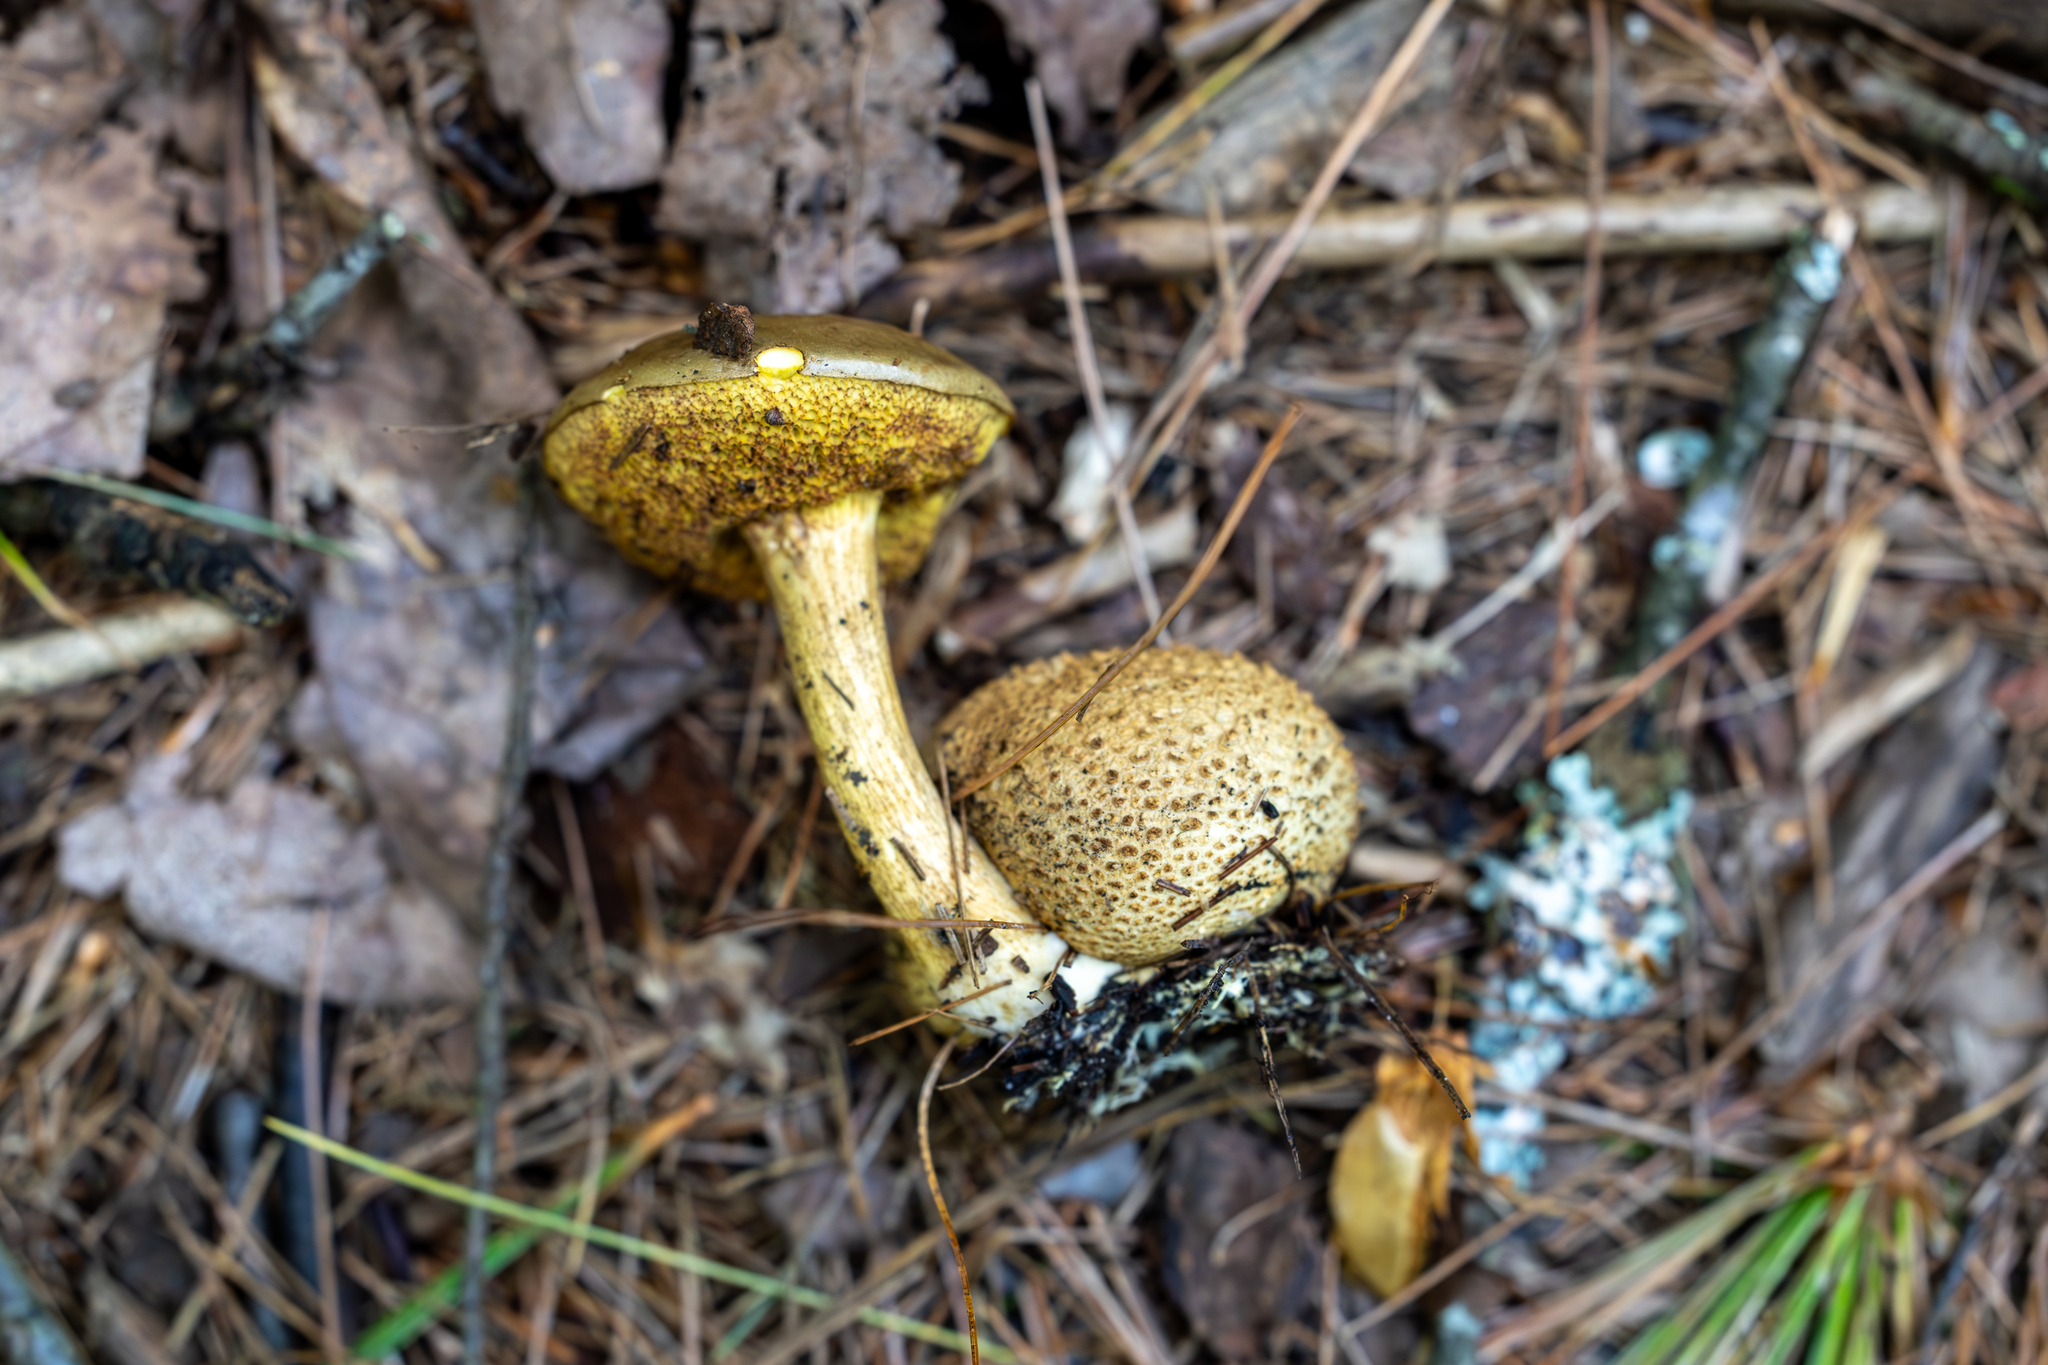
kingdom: Fungi
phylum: Basidiomycota
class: Agaricomycetes
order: Boletales
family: Boletaceae
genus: Pseudoboletus
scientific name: Pseudoboletus parasiticus
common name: Parasitic bolete
